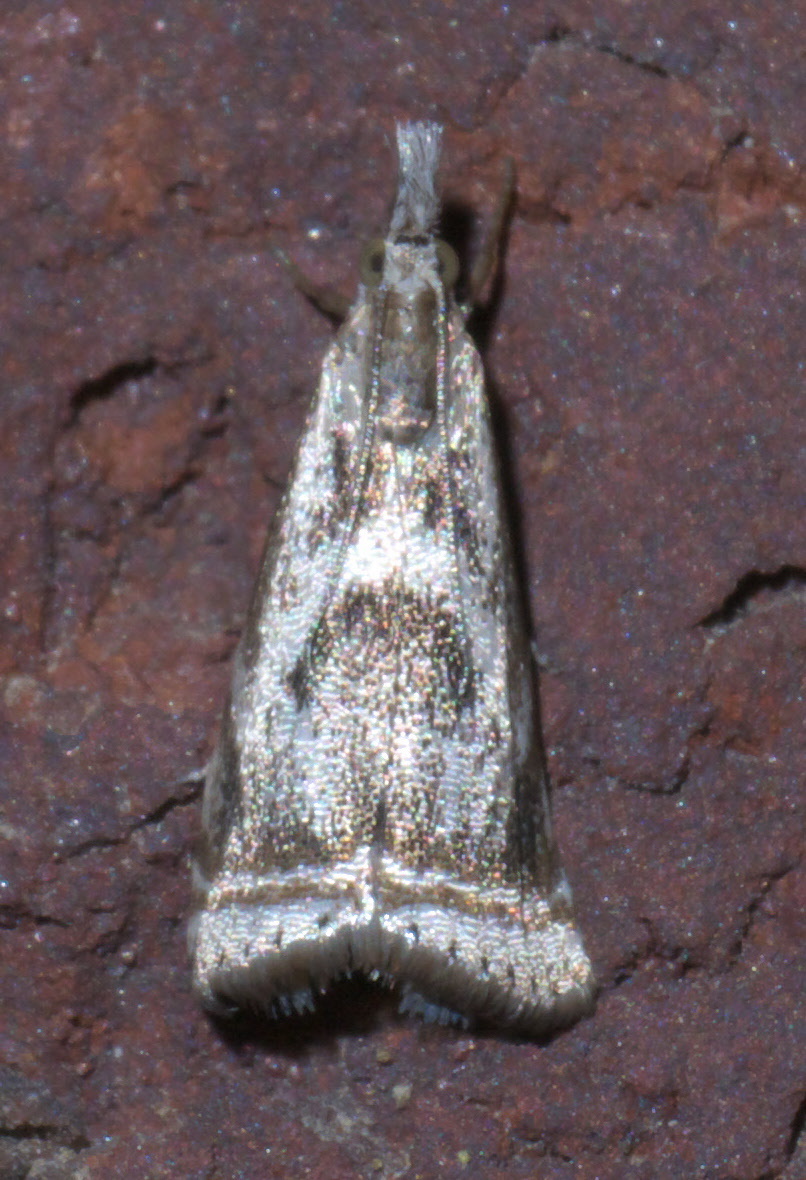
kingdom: Animalia
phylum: Arthropoda
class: Insecta
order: Lepidoptera
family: Crambidae
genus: Microcrambus
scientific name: Microcrambus elegans
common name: Elegant grass-veneer
